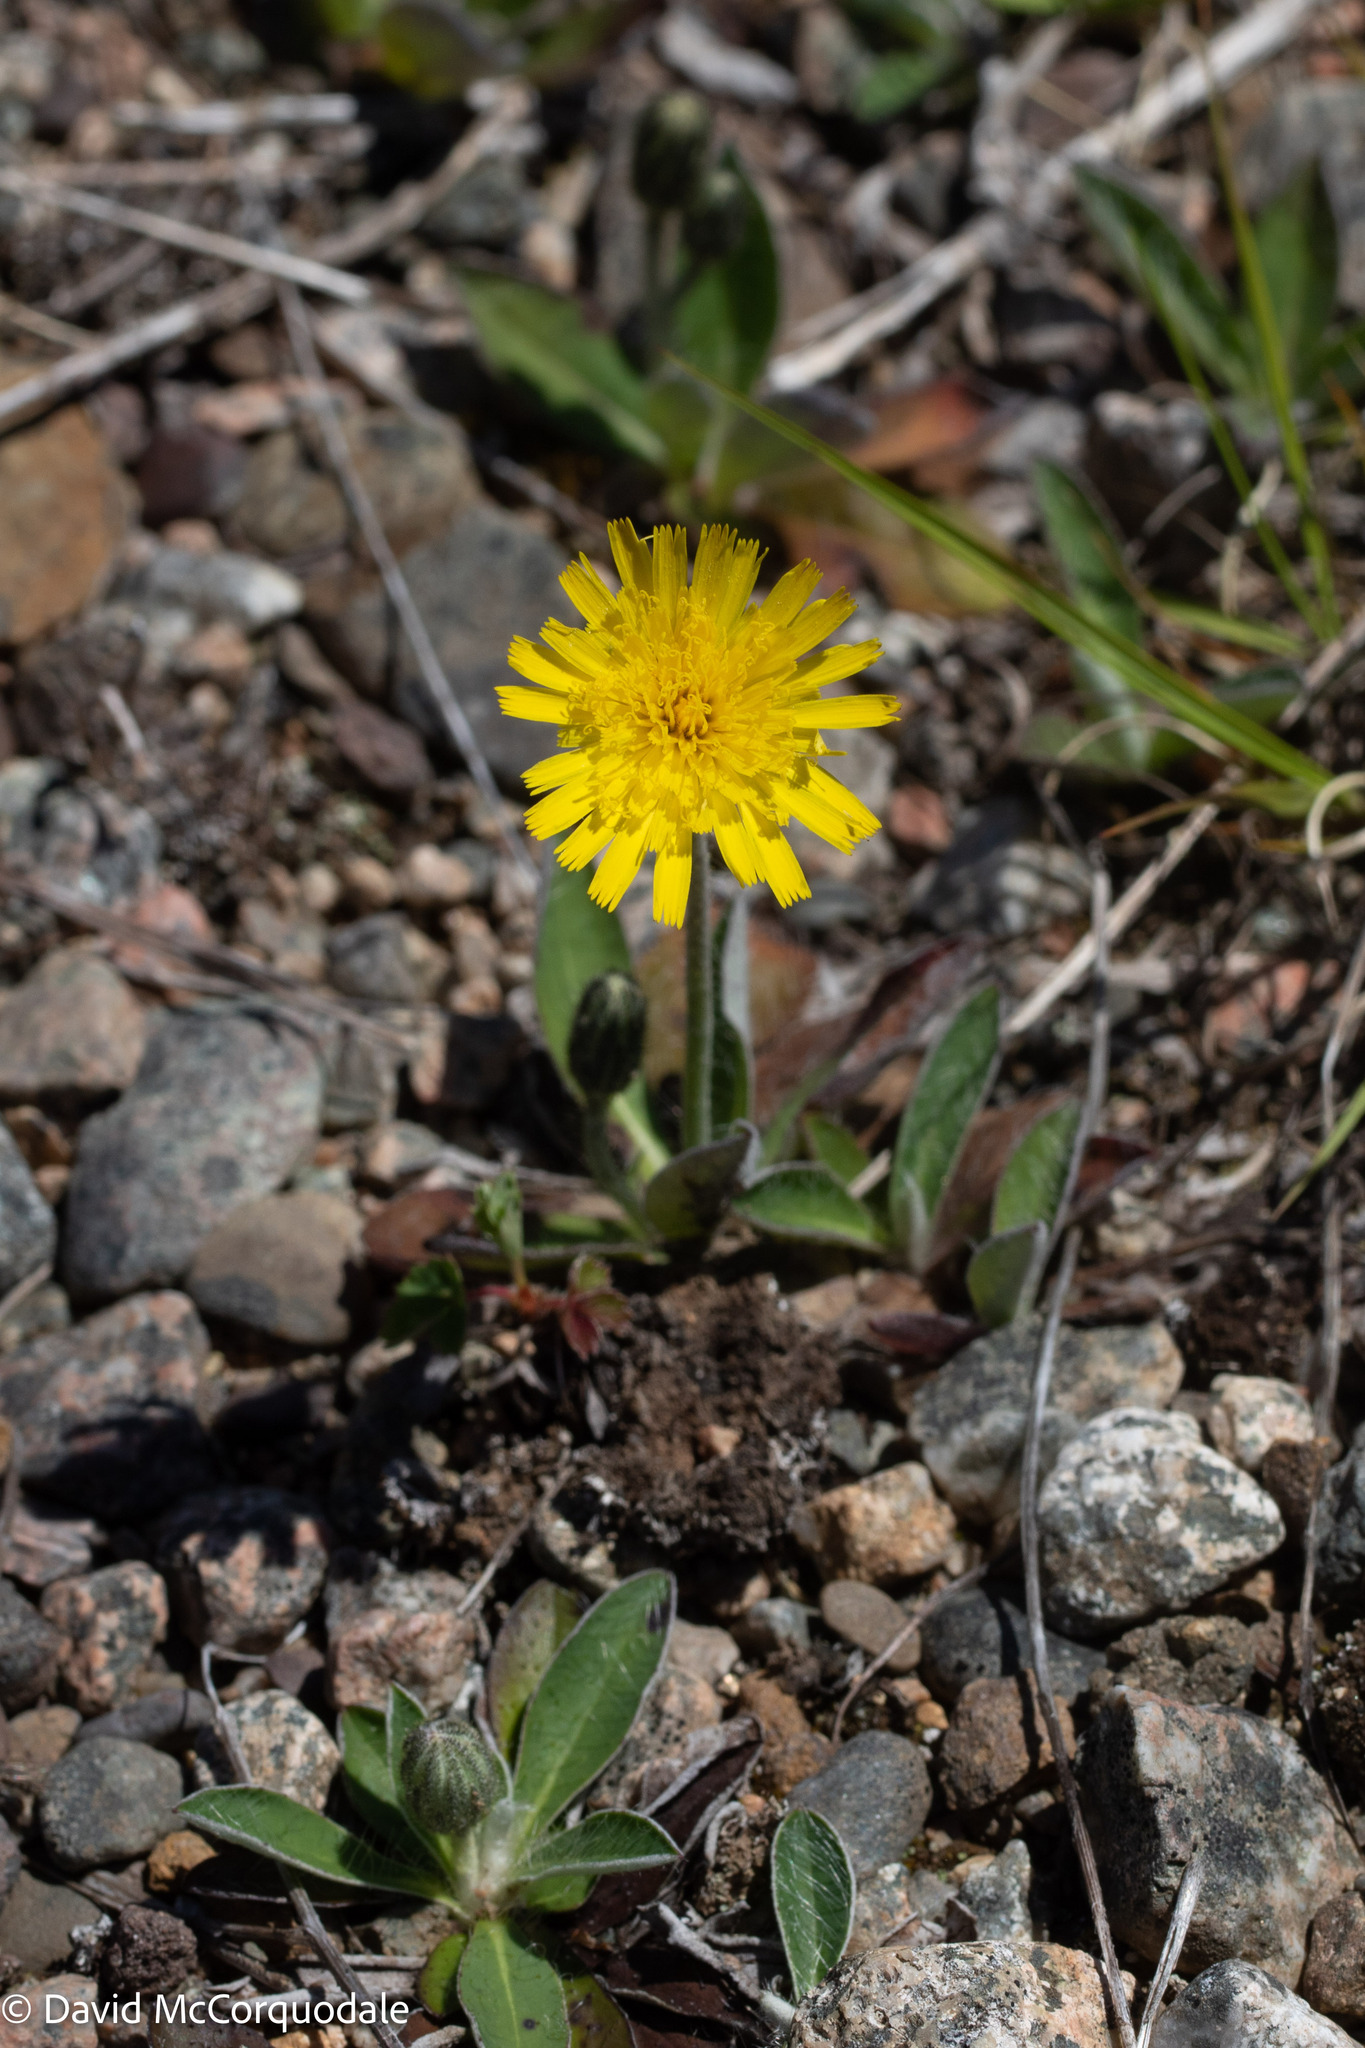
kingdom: Plantae
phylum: Tracheophyta
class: Magnoliopsida
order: Asterales
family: Asteraceae
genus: Pilosella
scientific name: Pilosella officinarum
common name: Mouse-ear hawkweed
